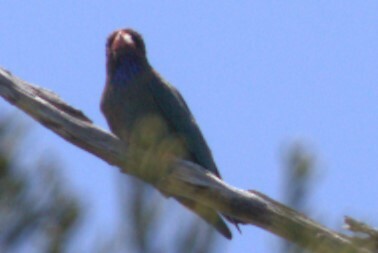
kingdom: Animalia
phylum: Chordata
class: Aves
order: Coraciiformes
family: Coraciidae
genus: Eurystomus
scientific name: Eurystomus orientalis
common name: Oriental dollarbird
